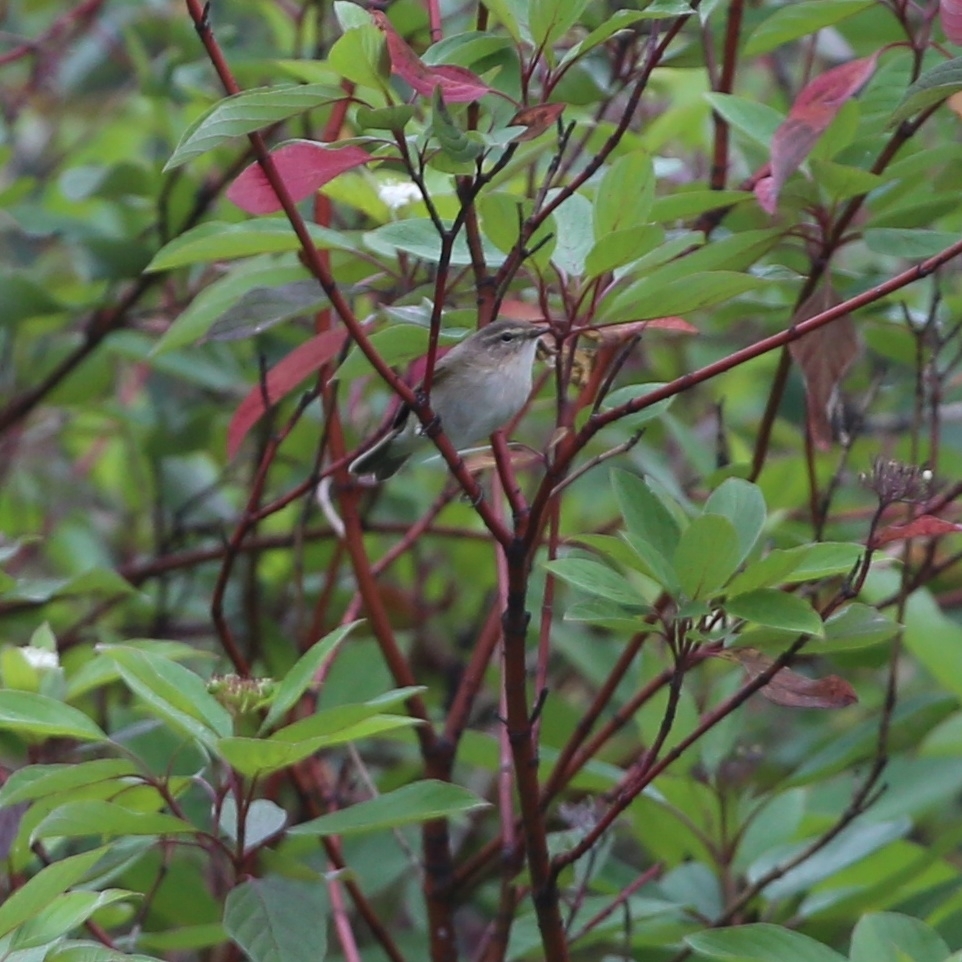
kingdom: Animalia
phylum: Chordata
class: Aves
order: Passeriformes
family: Phylloscopidae
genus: Phylloscopus
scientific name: Phylloscopus collybita
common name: Common chiffchaff
